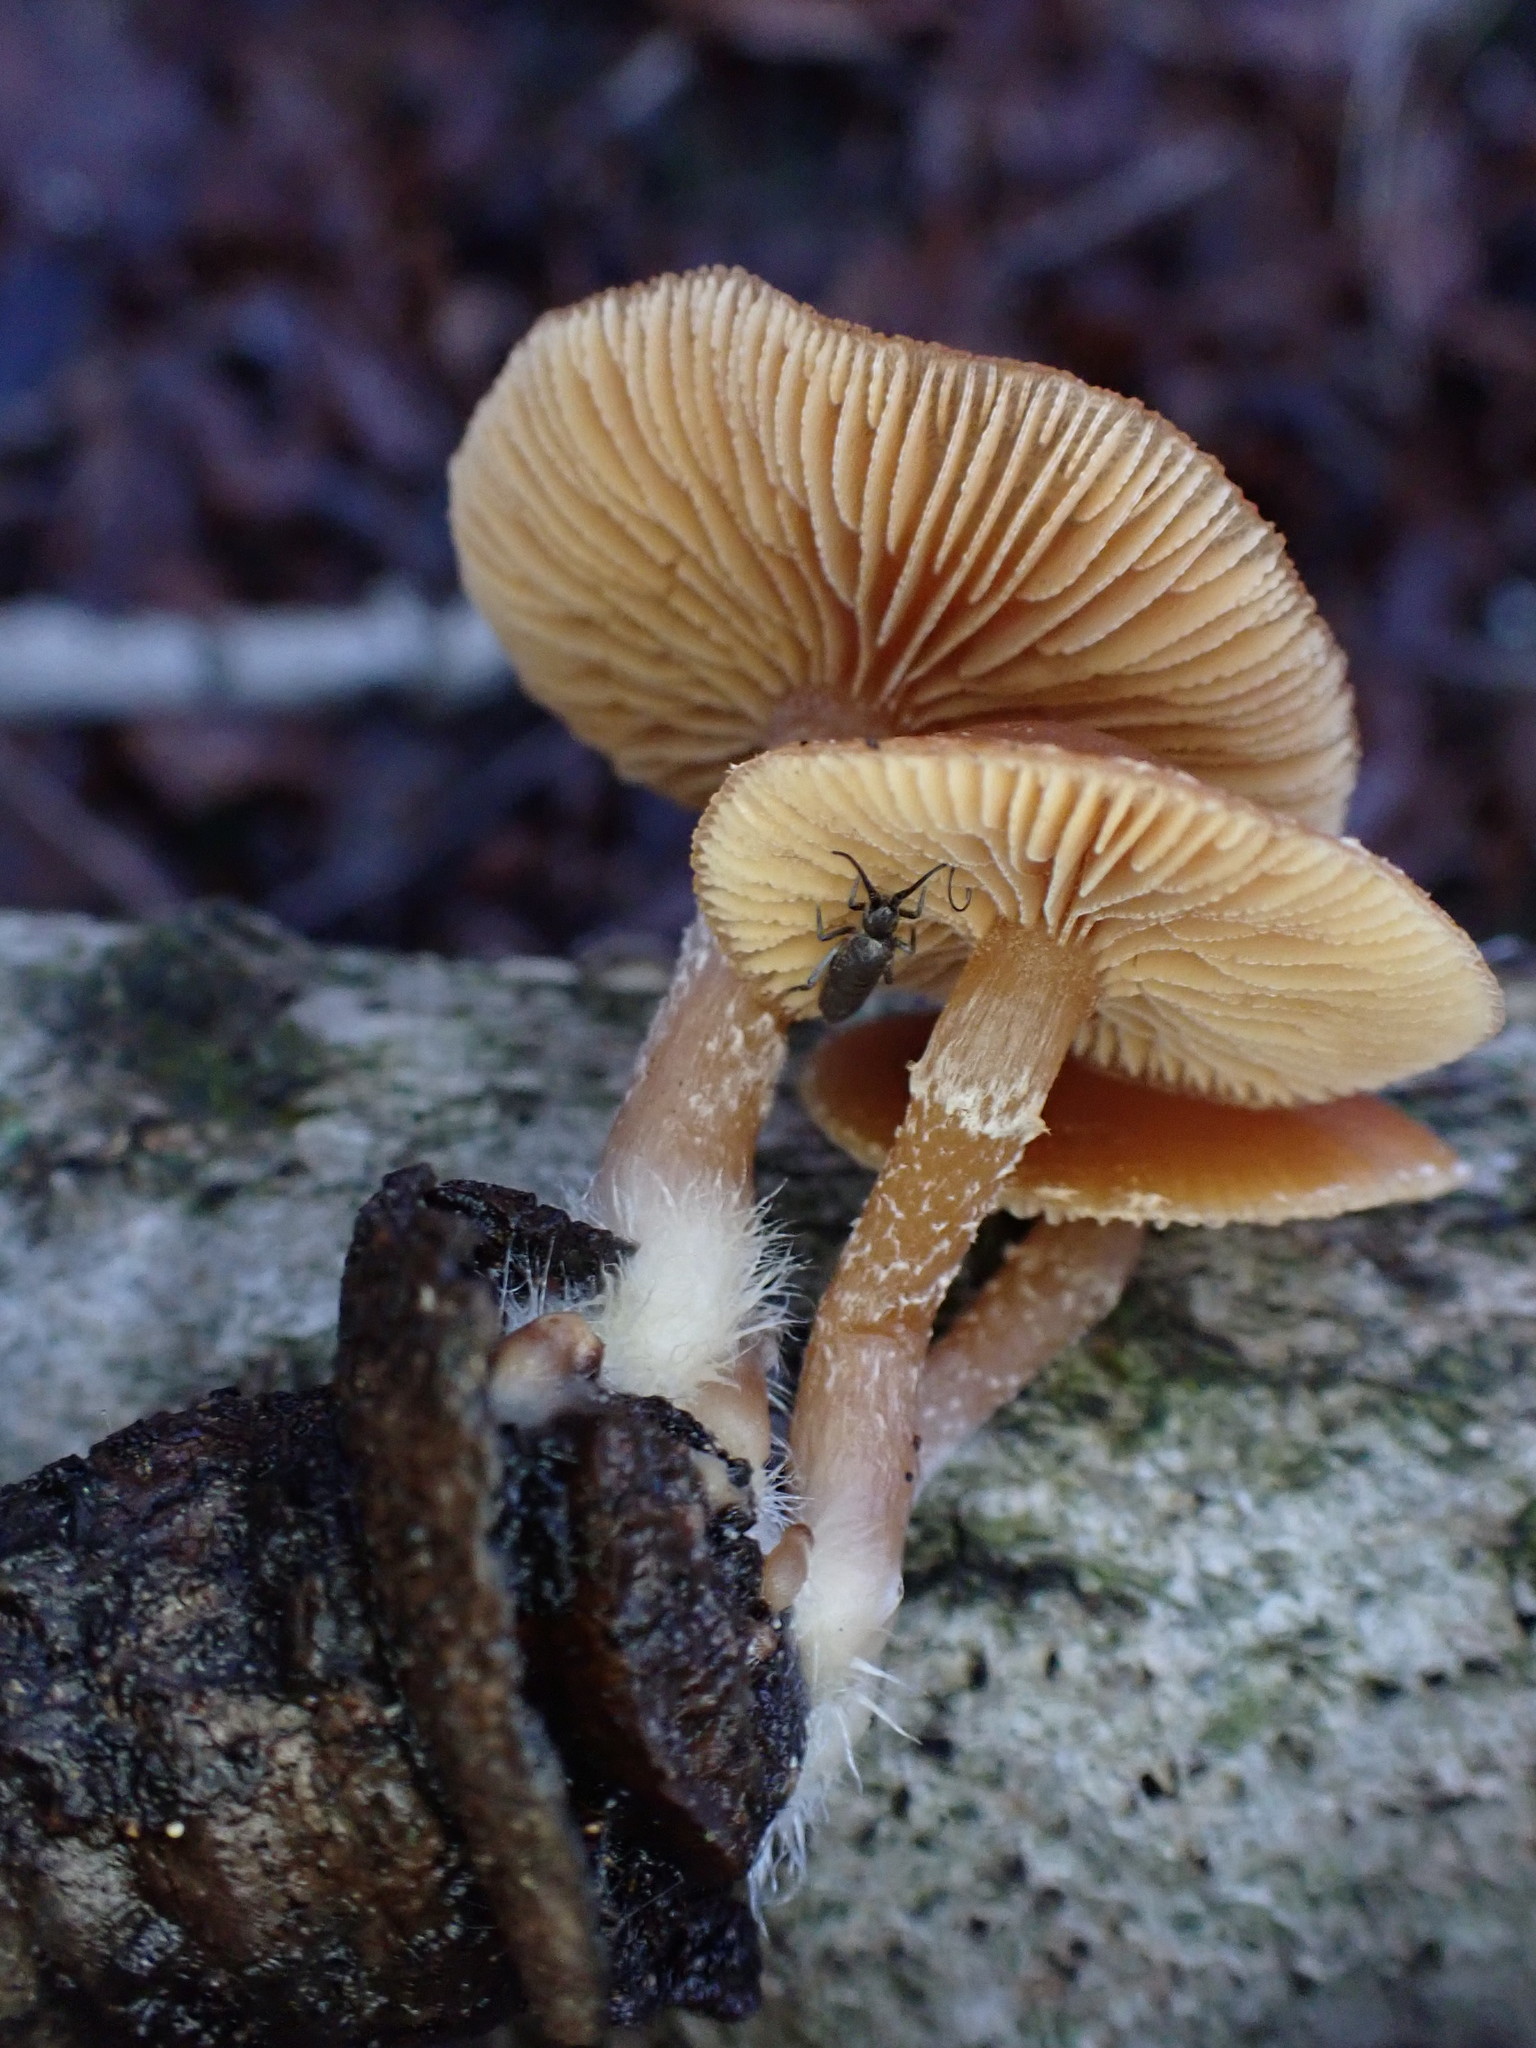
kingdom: Animalia
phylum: Arthropoda
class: Collembola
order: Entomobryomorpha
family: Tomoceridae
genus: Pogonognathellus
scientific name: Pogonognathellus
